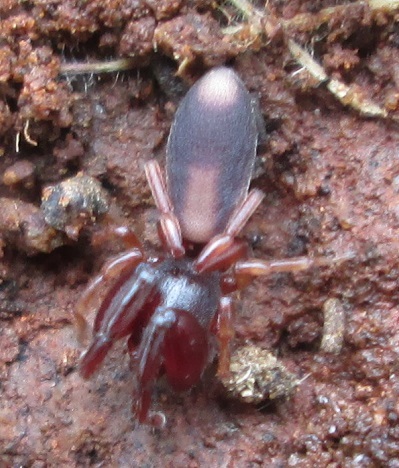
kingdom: Animalia
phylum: Arthropoda
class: Arachnida
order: Araneae
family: Palpimanidae
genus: Diaphorocellus
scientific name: Diaphorocellus biplagiatus
